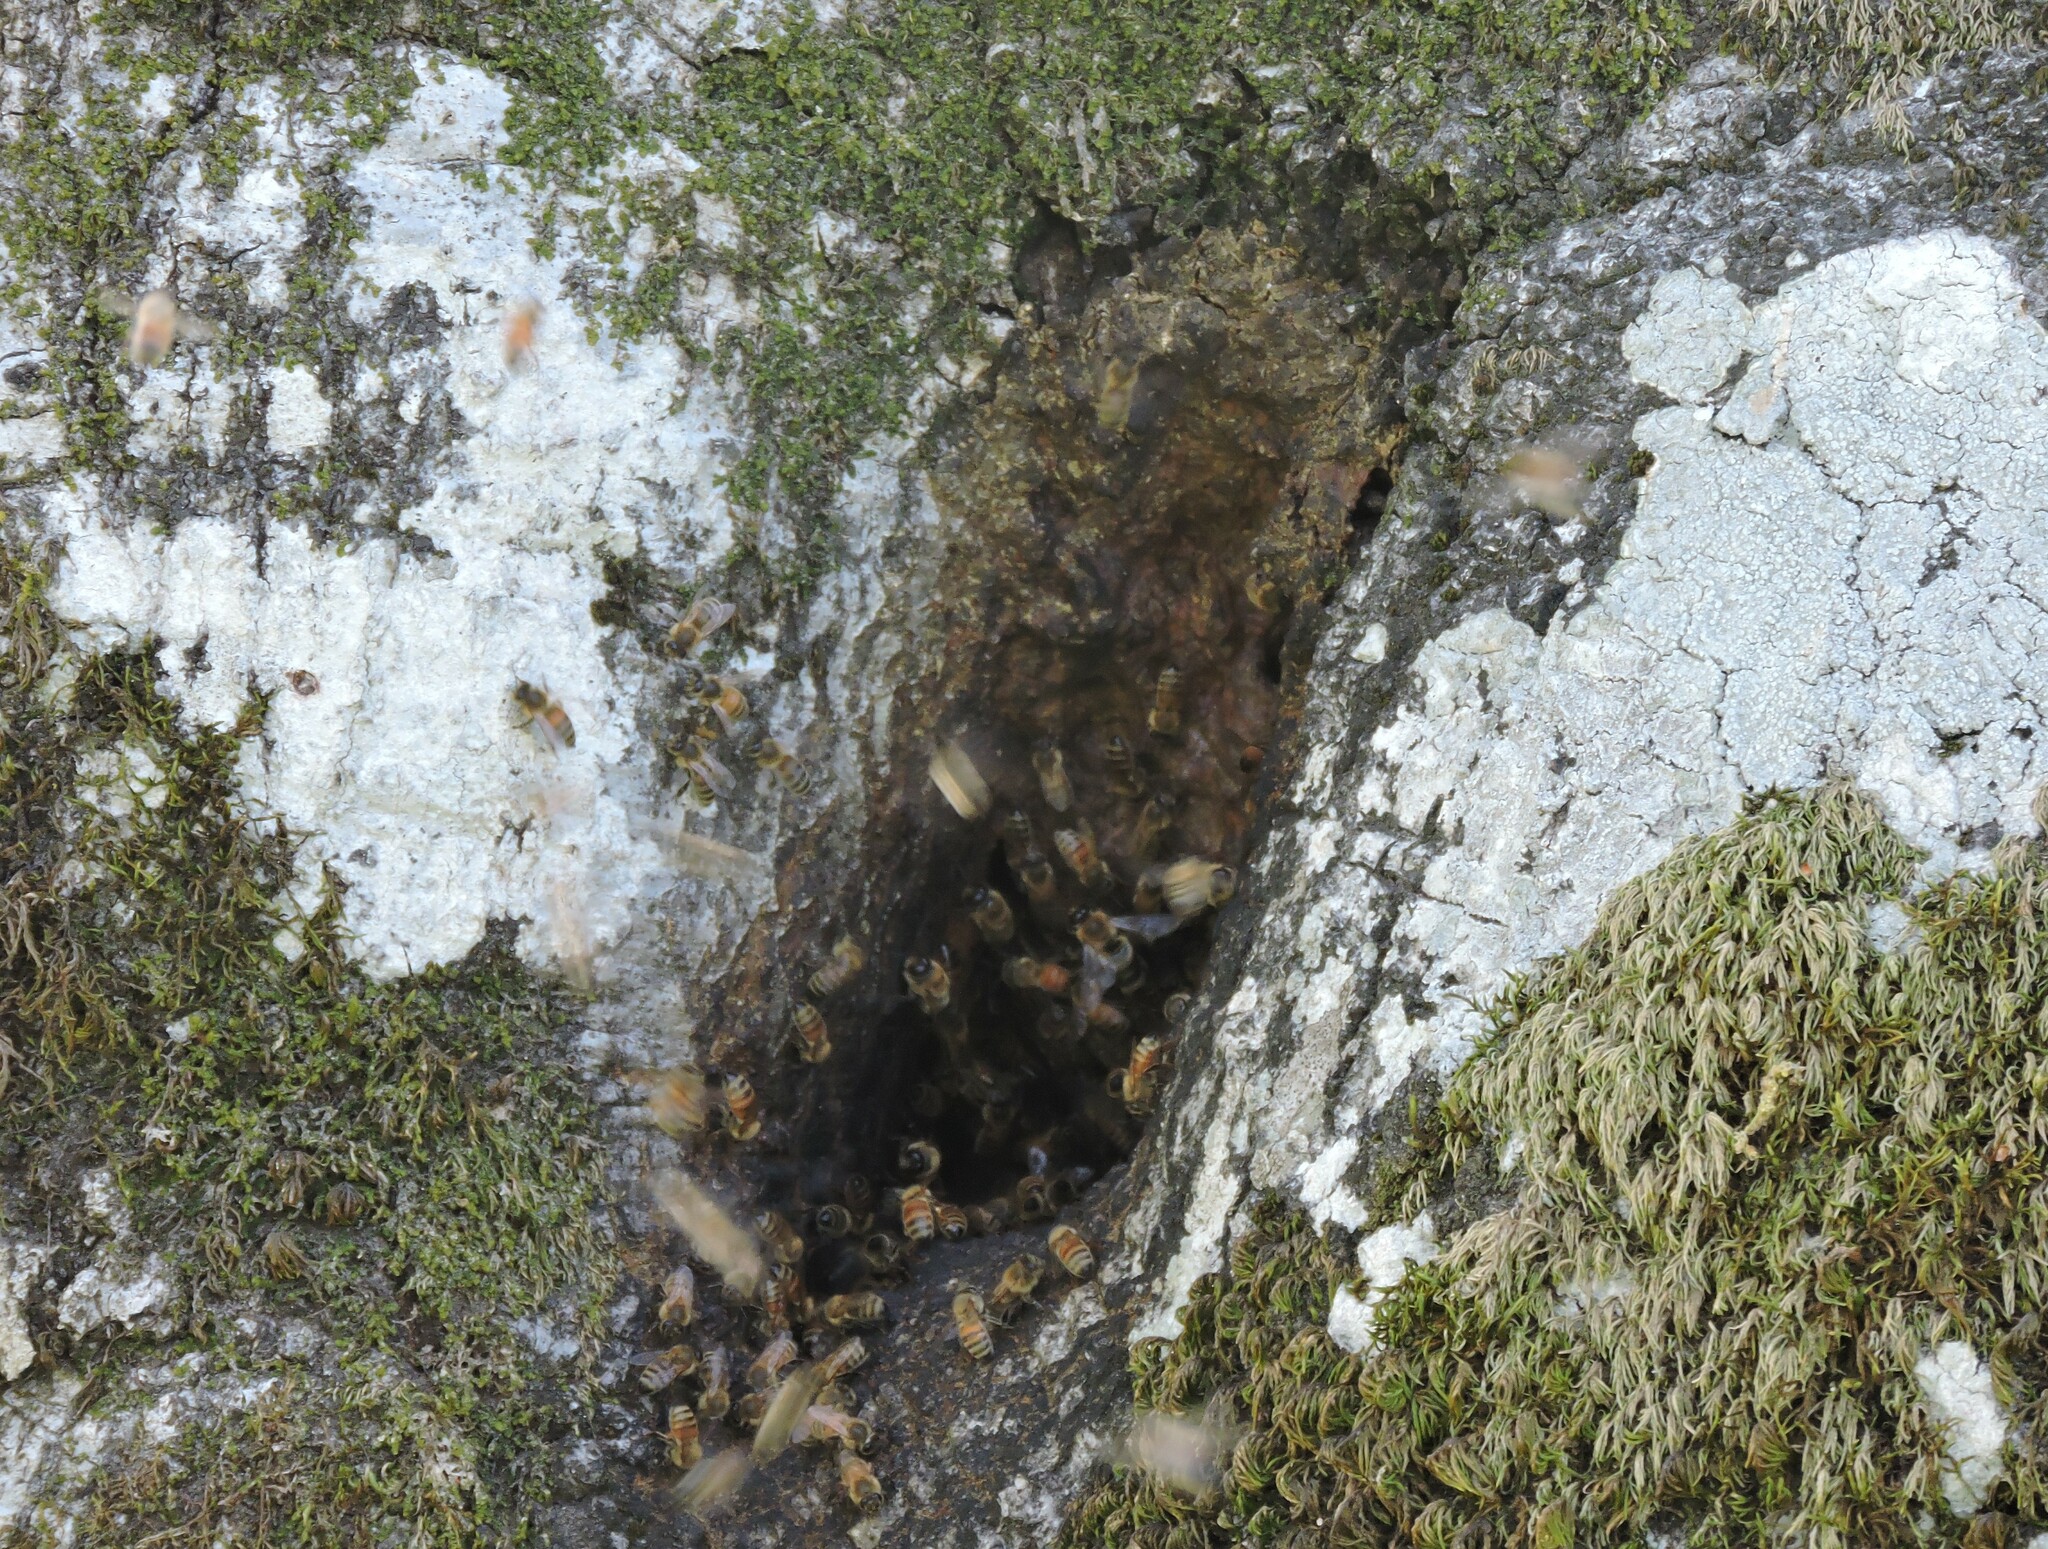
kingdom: Animalia
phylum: Arthropoda
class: Insecta
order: Hymenoptera
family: Apidae
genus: Apis
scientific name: Apis mellifera
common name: Honey bee
